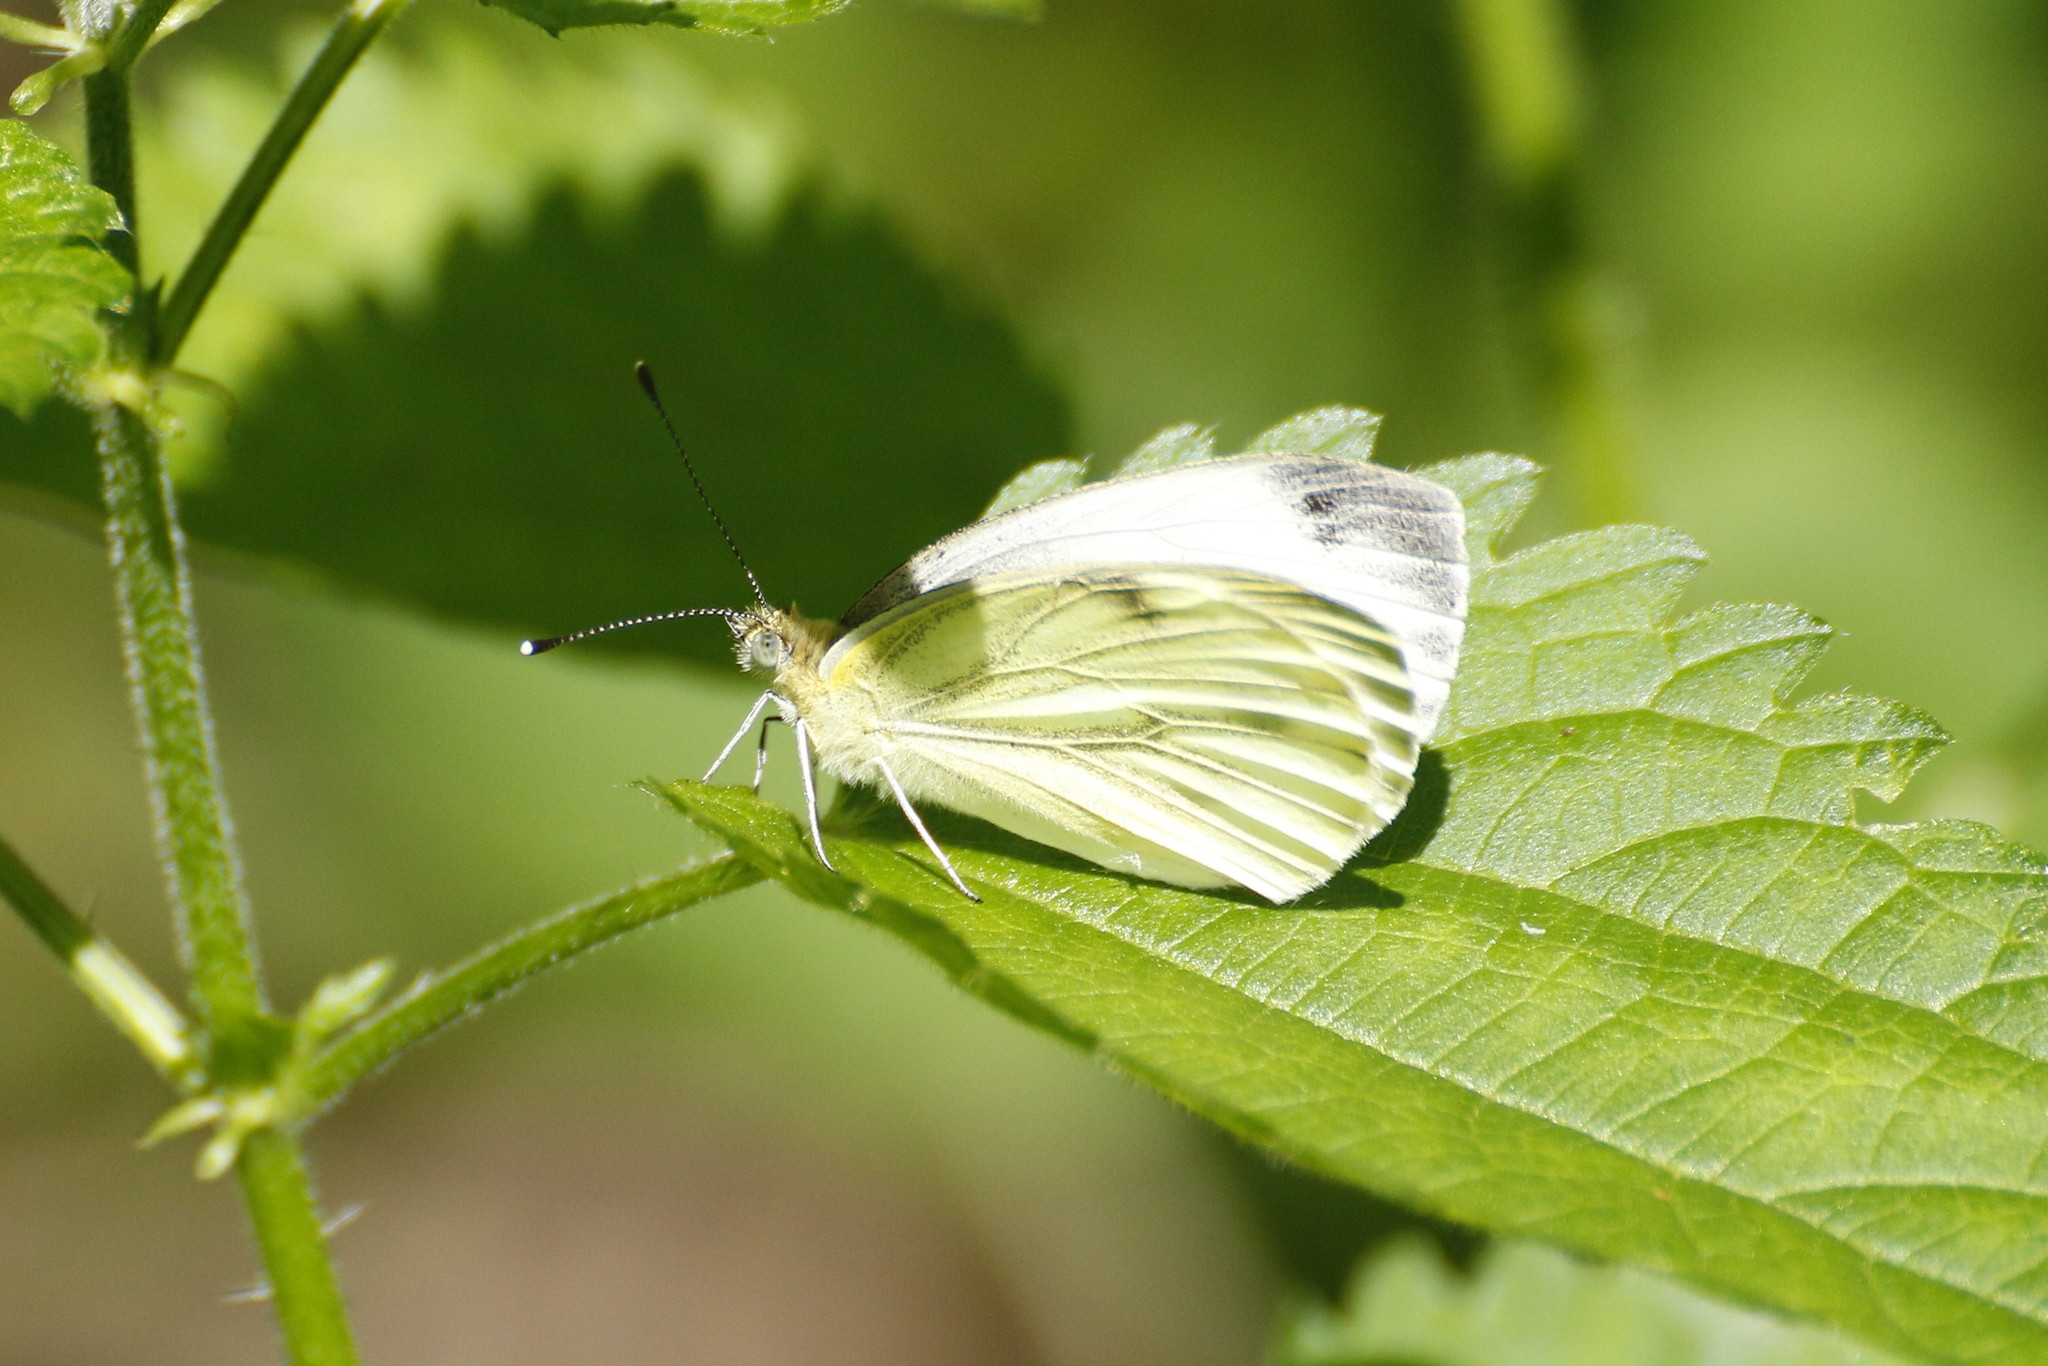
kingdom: Animalia
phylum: Arthropoda
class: Insecta
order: Lepidoptera
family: Pieridae
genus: Pieris
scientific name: Pieris napi
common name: Green-veined white
